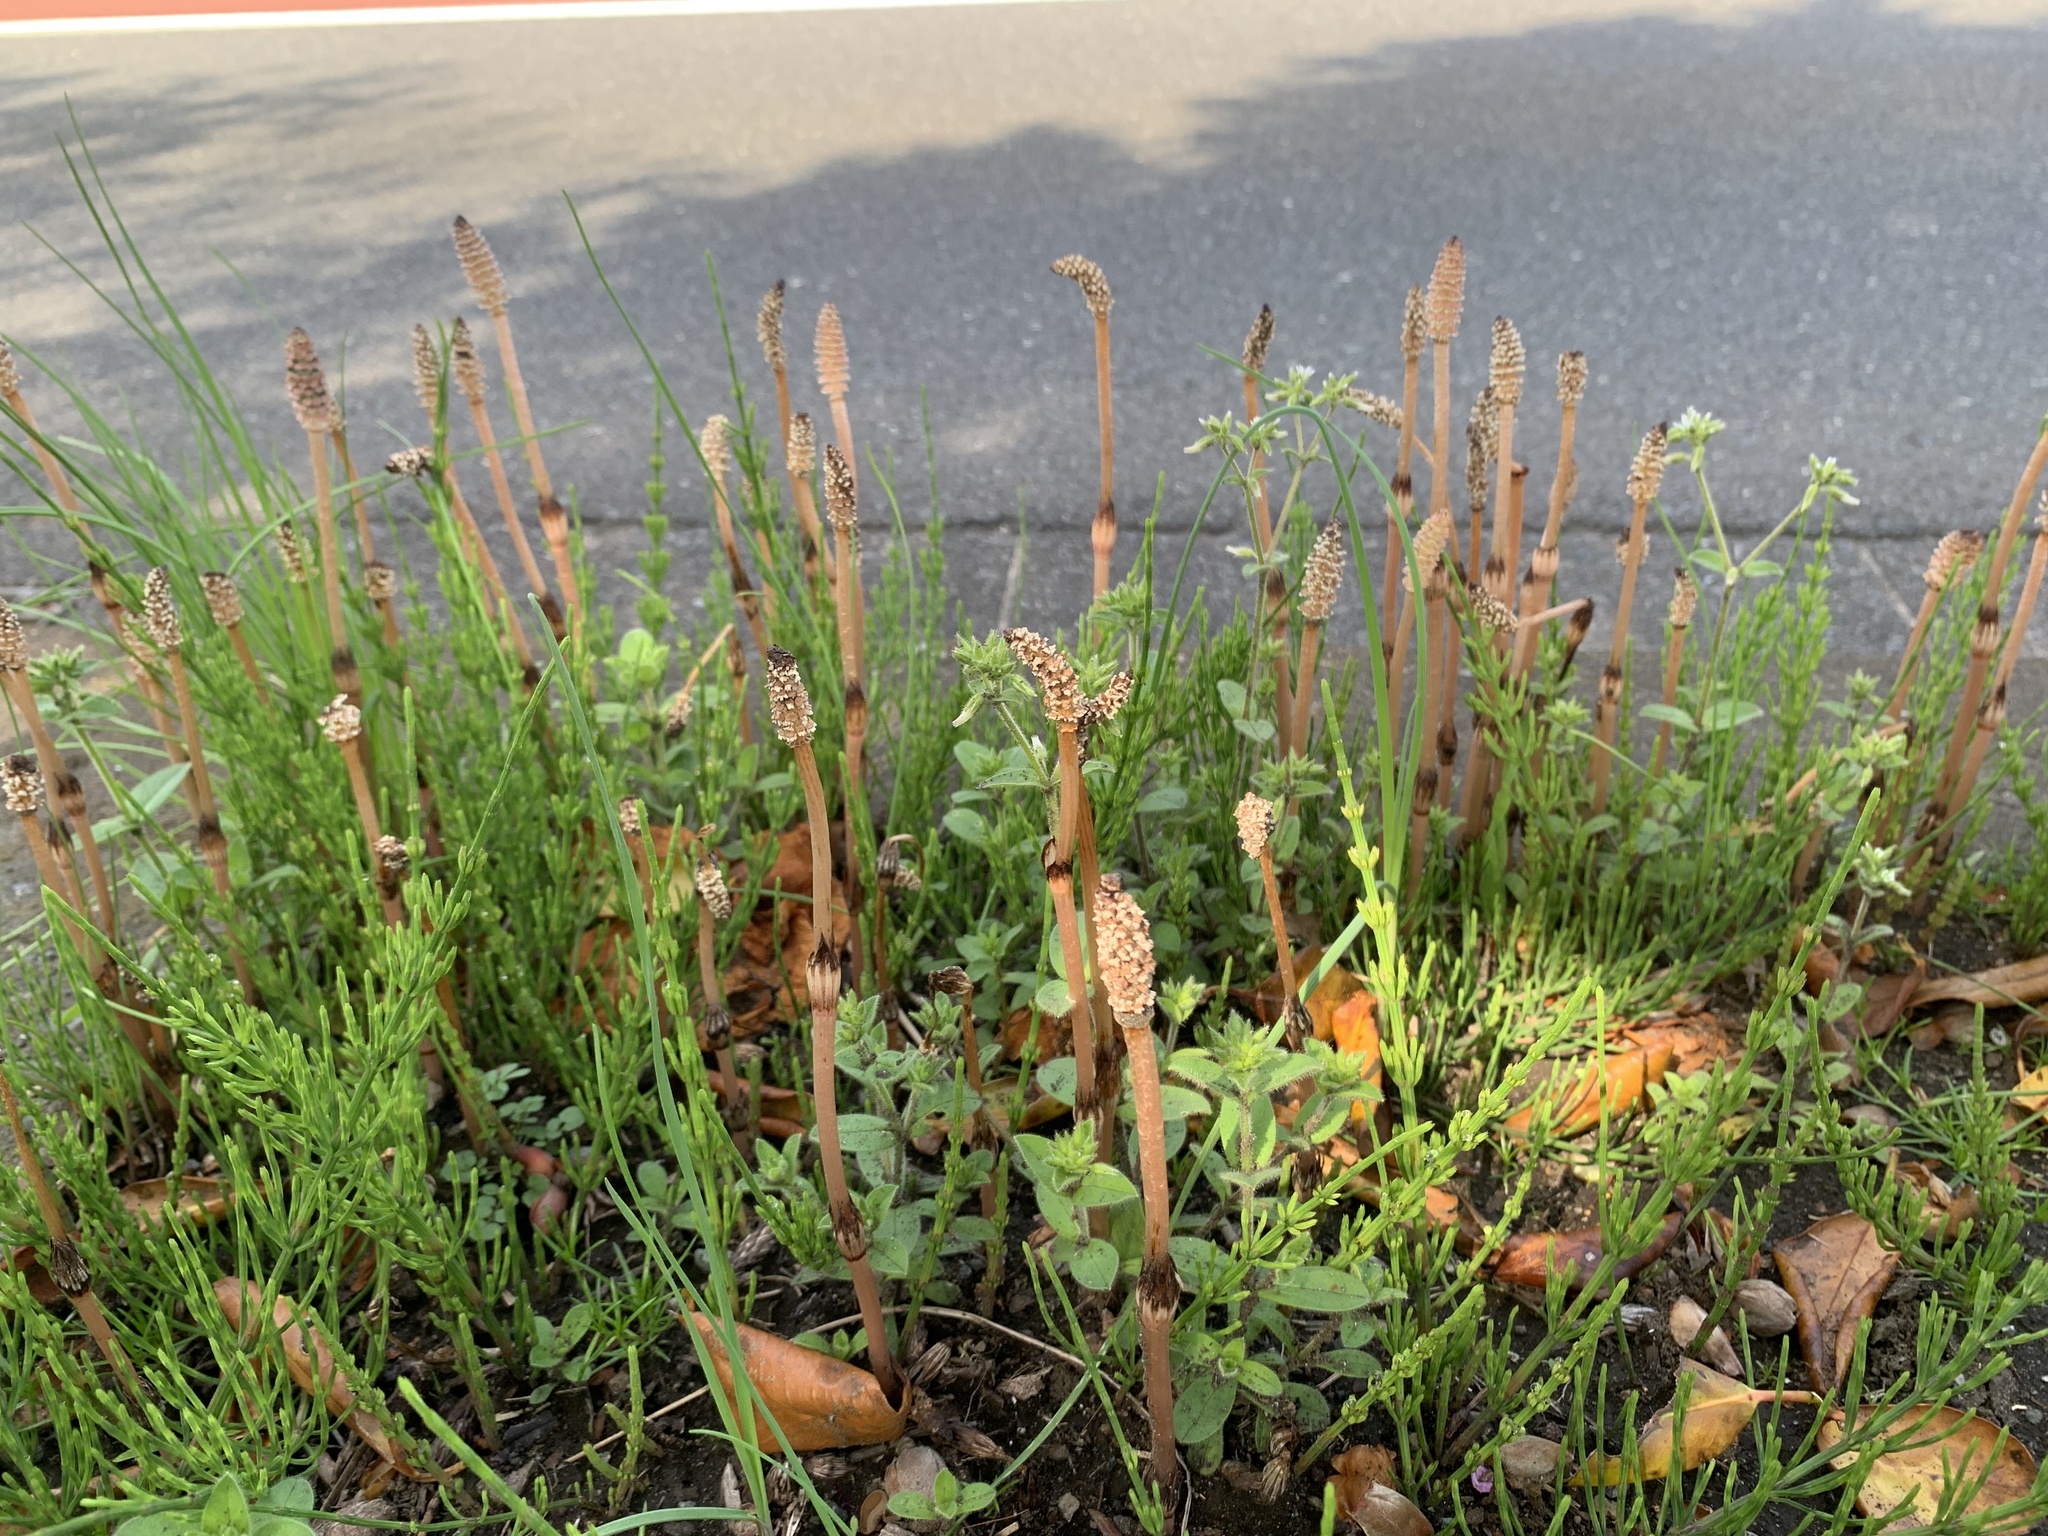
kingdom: Plantae
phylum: Tracheophyta
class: Polypodiopsida
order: Equisetales
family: Equisetaceae
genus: Equisetum
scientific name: Equisetum arvense
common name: Field horsetail
